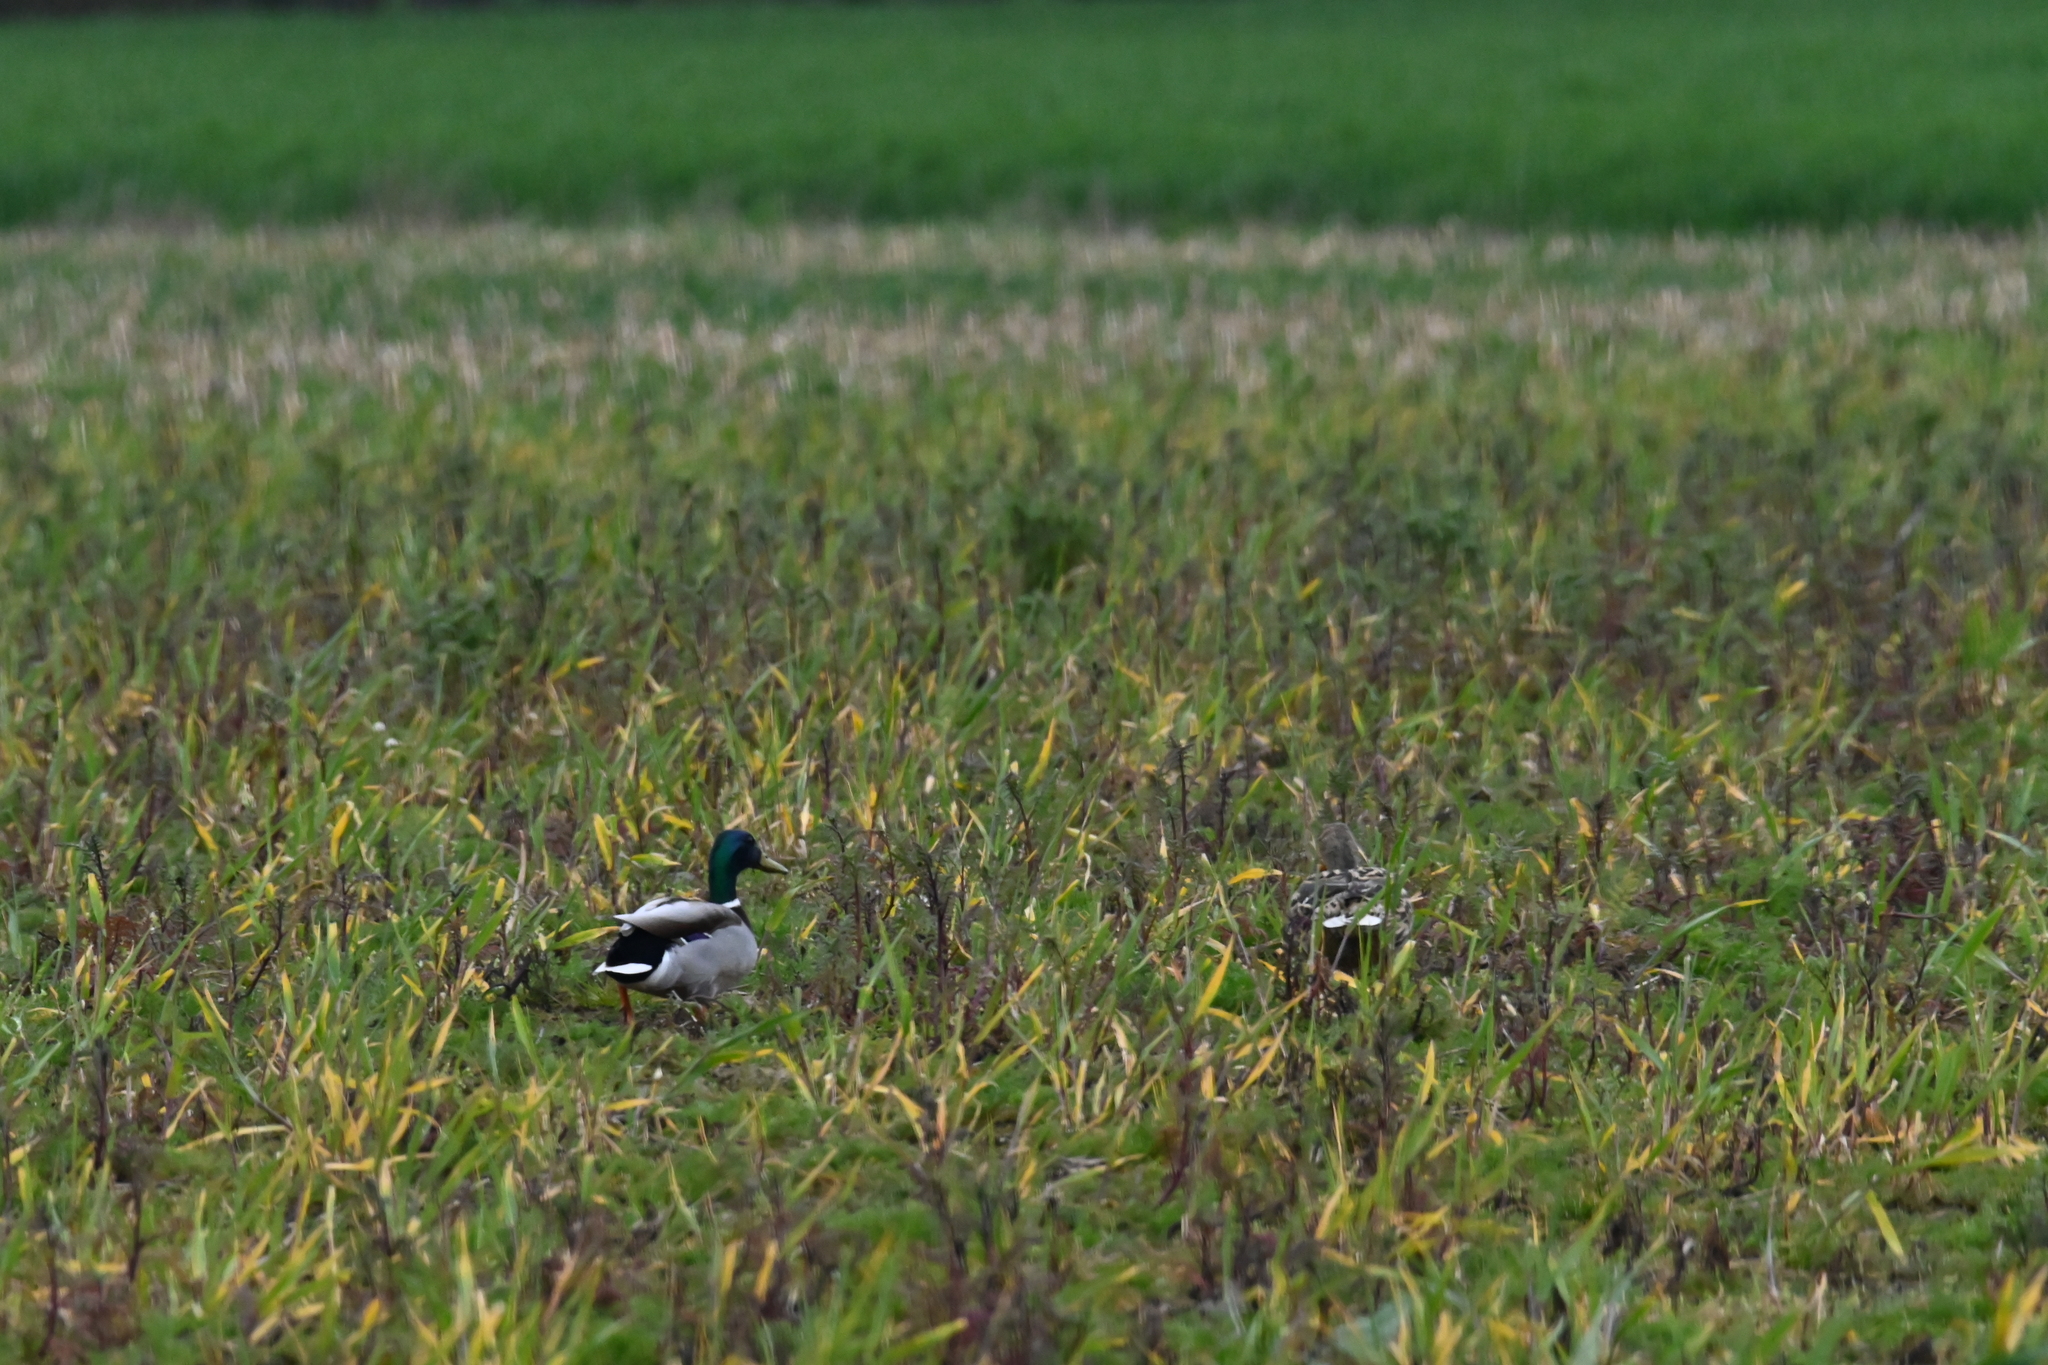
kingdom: Animalia
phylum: Chordata
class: Aves
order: Anseriformes
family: Anatidae
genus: Anas
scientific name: Anas platyrhynchos
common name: Mallard
